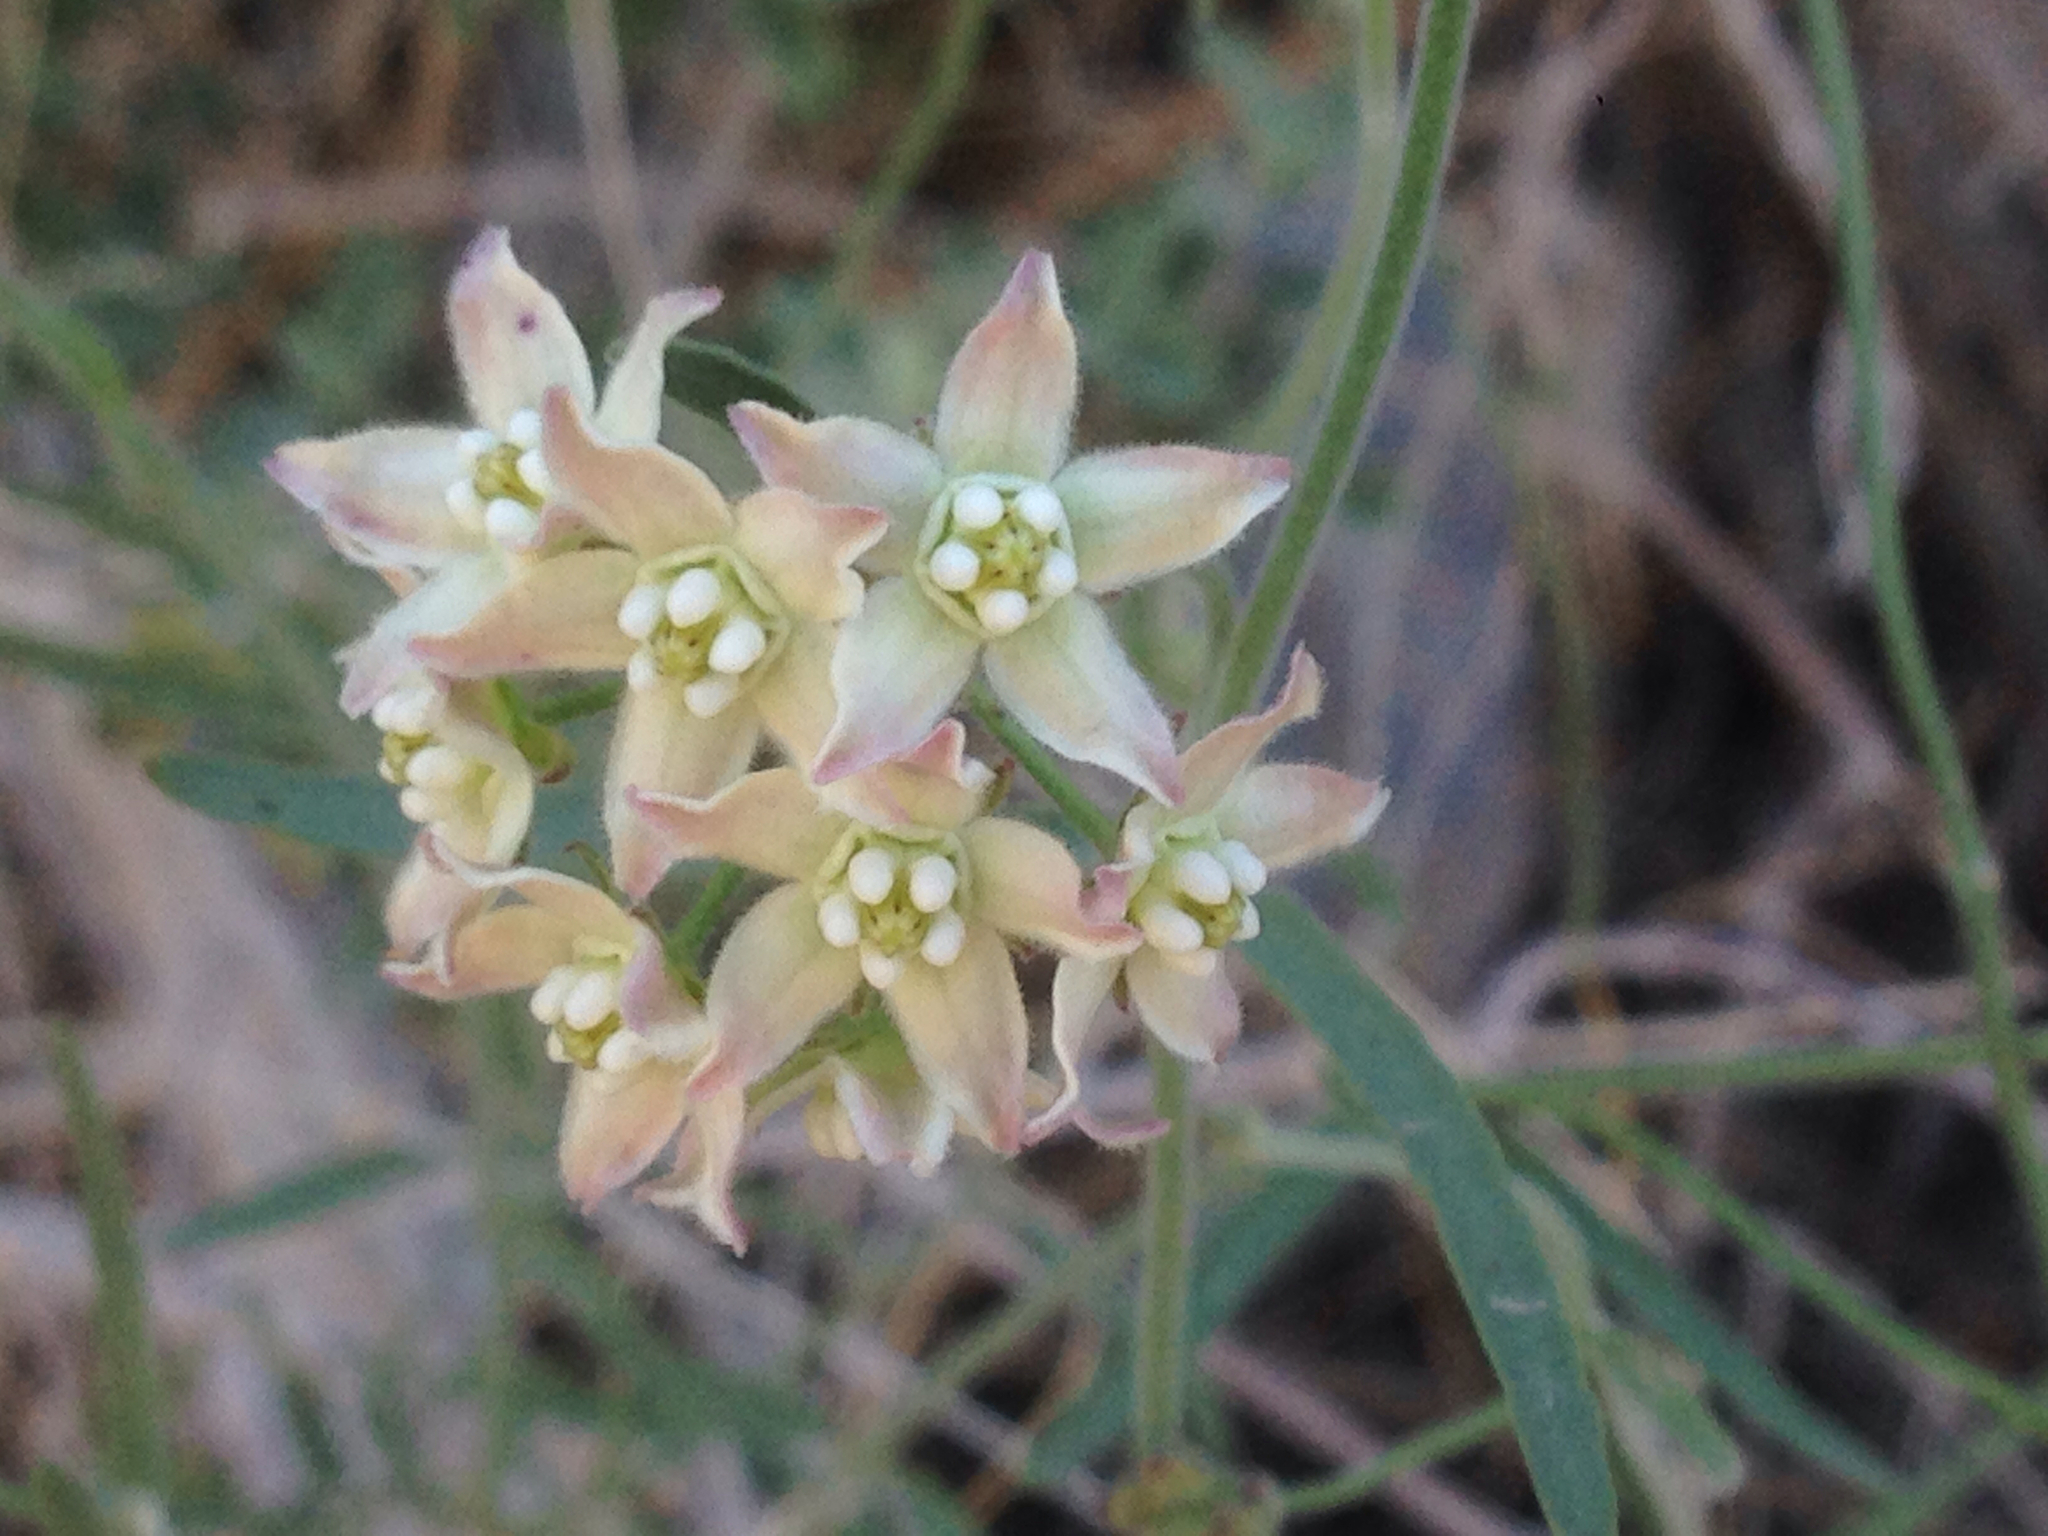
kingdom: Plantae
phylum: Tracheophyta
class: Magnoliopsida
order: Gentianales
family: Apocynaceae
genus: Funastrum
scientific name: Funastrum heterophyllum
